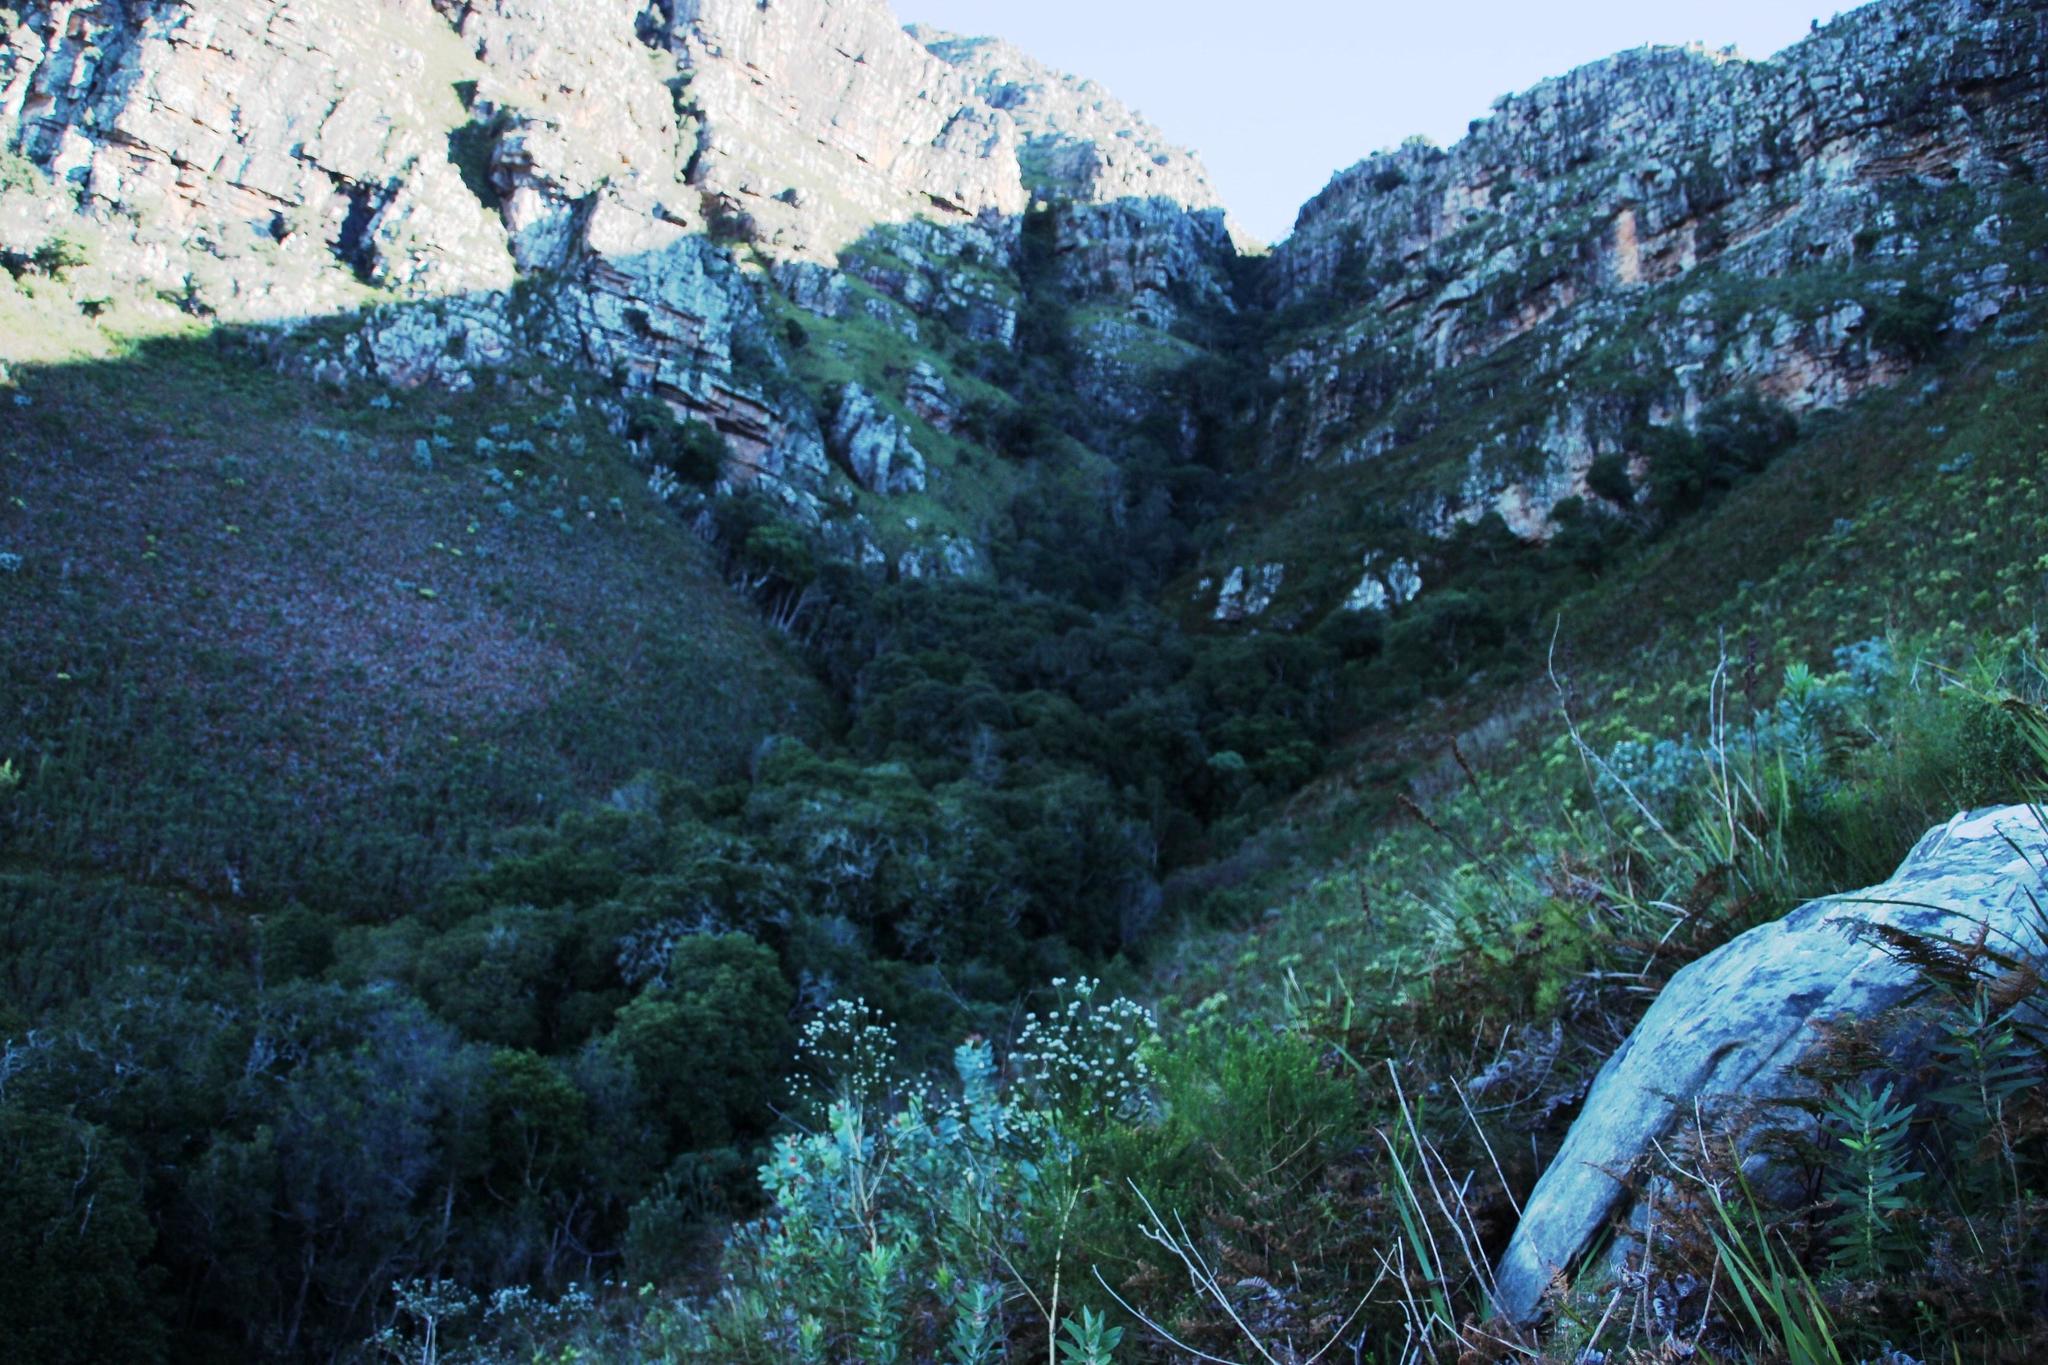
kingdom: Plantae
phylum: Tracheophyta
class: Magnoliopsida
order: Oxalidales
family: Cunoniaceae
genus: Cunonia
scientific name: Cunonia capensis
